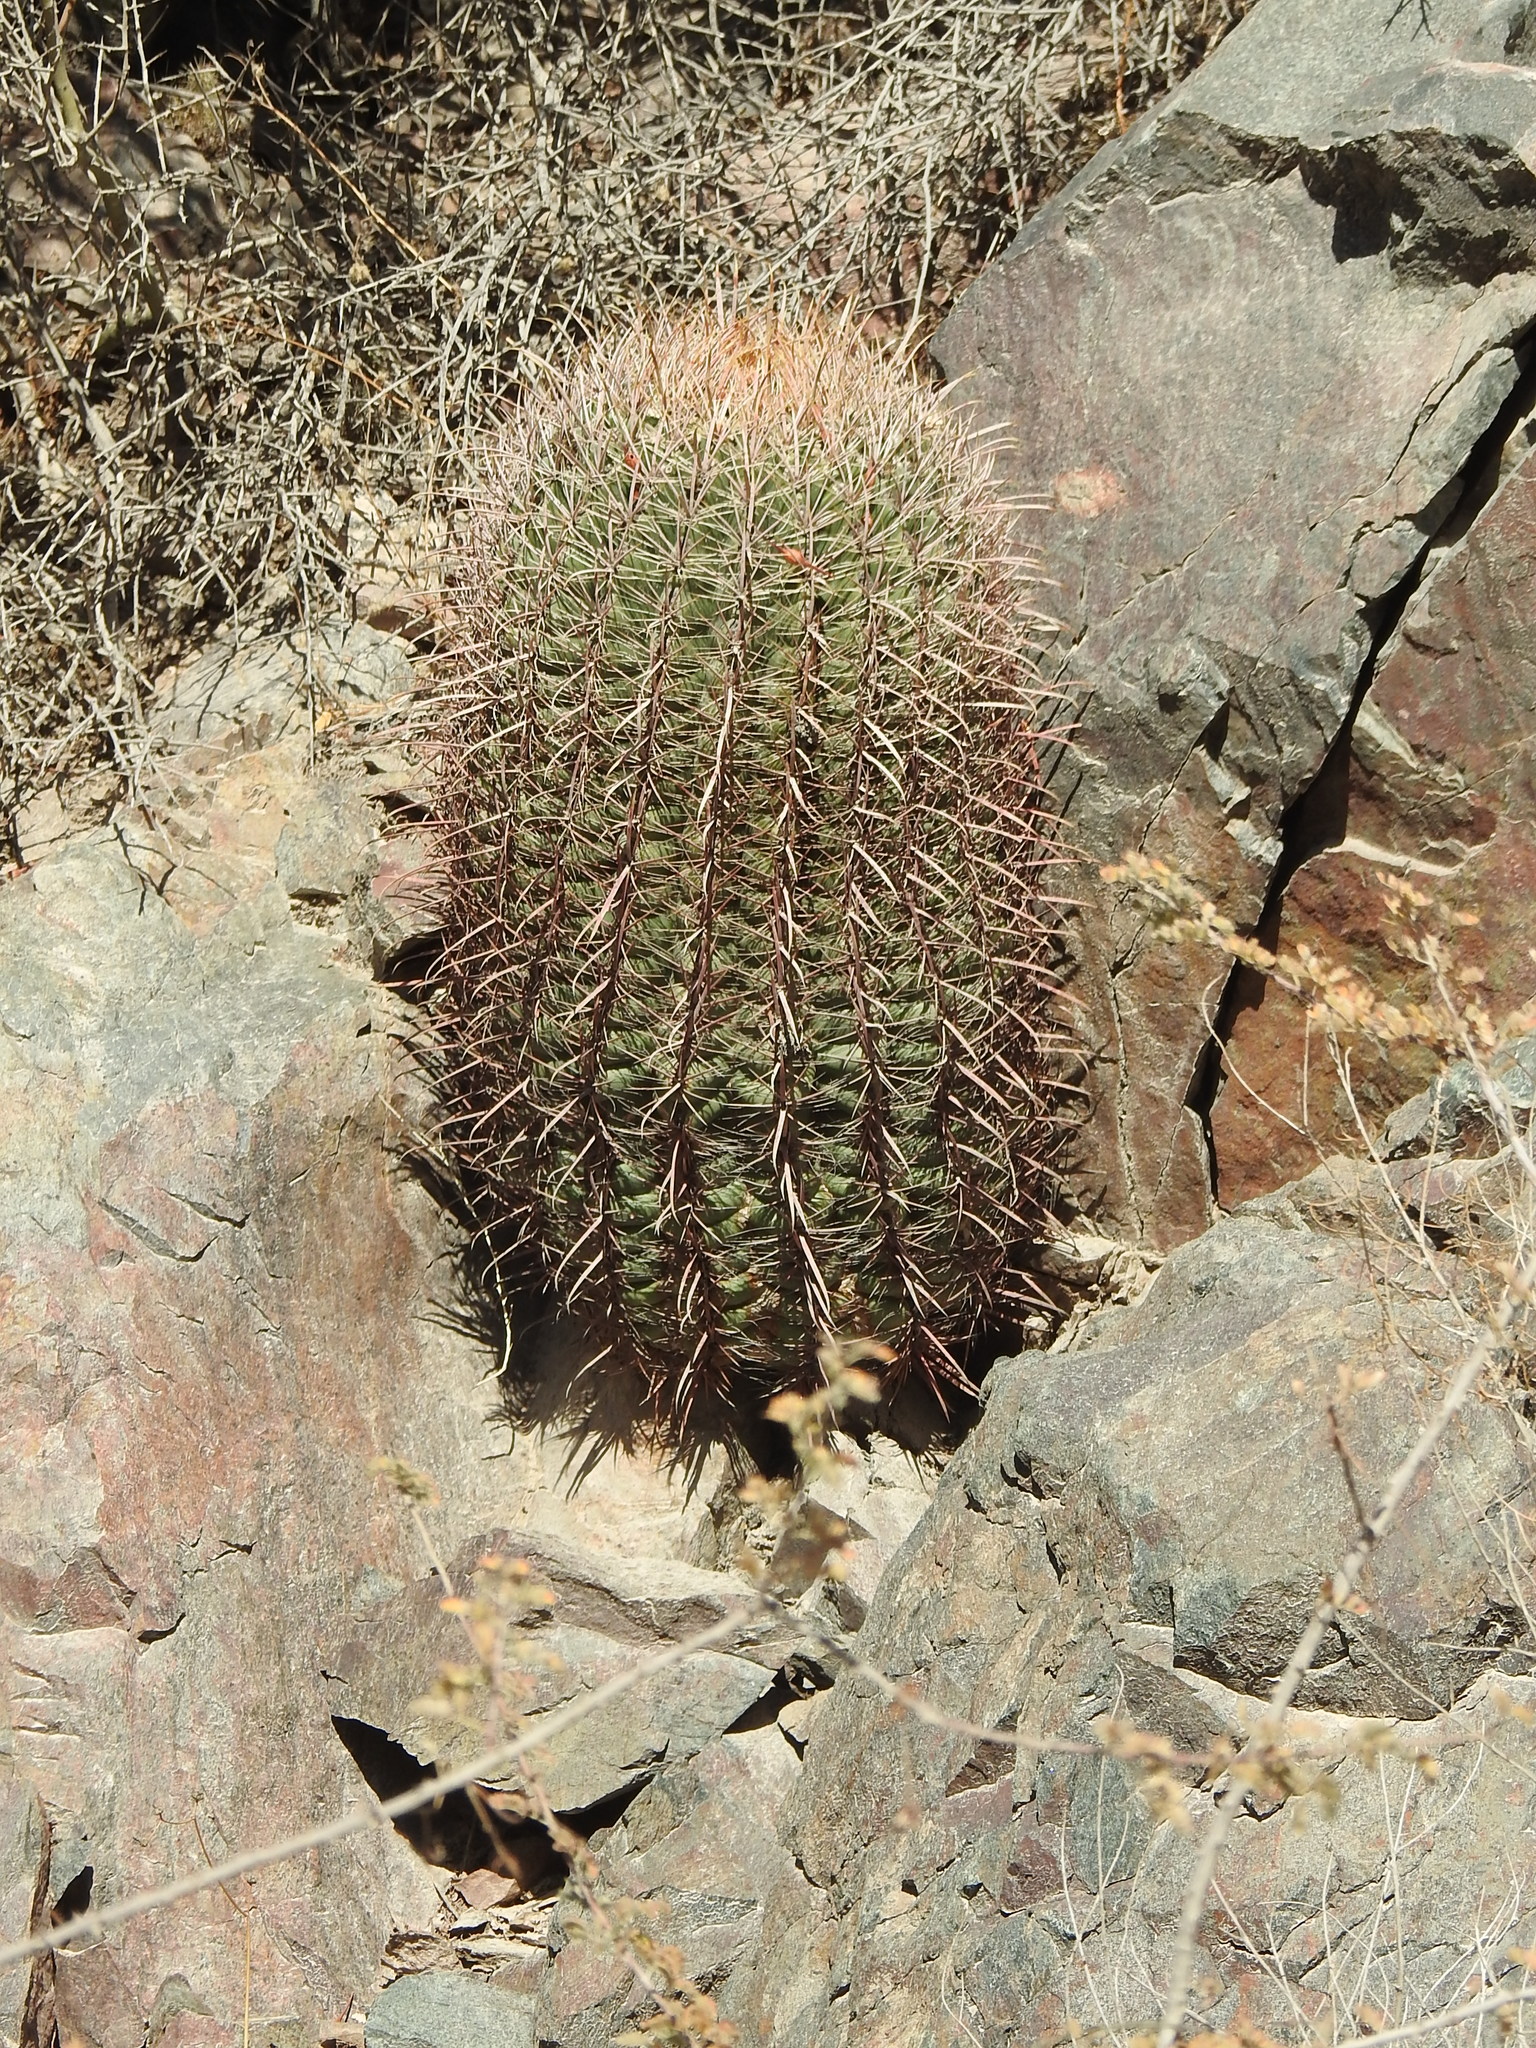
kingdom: Plantae
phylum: Tracheophyta
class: Magnoliopsida
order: Caryophyllales
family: Cactaceae
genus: Ferocactus
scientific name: Ferocactus cylindraceus
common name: California barrel cactus
